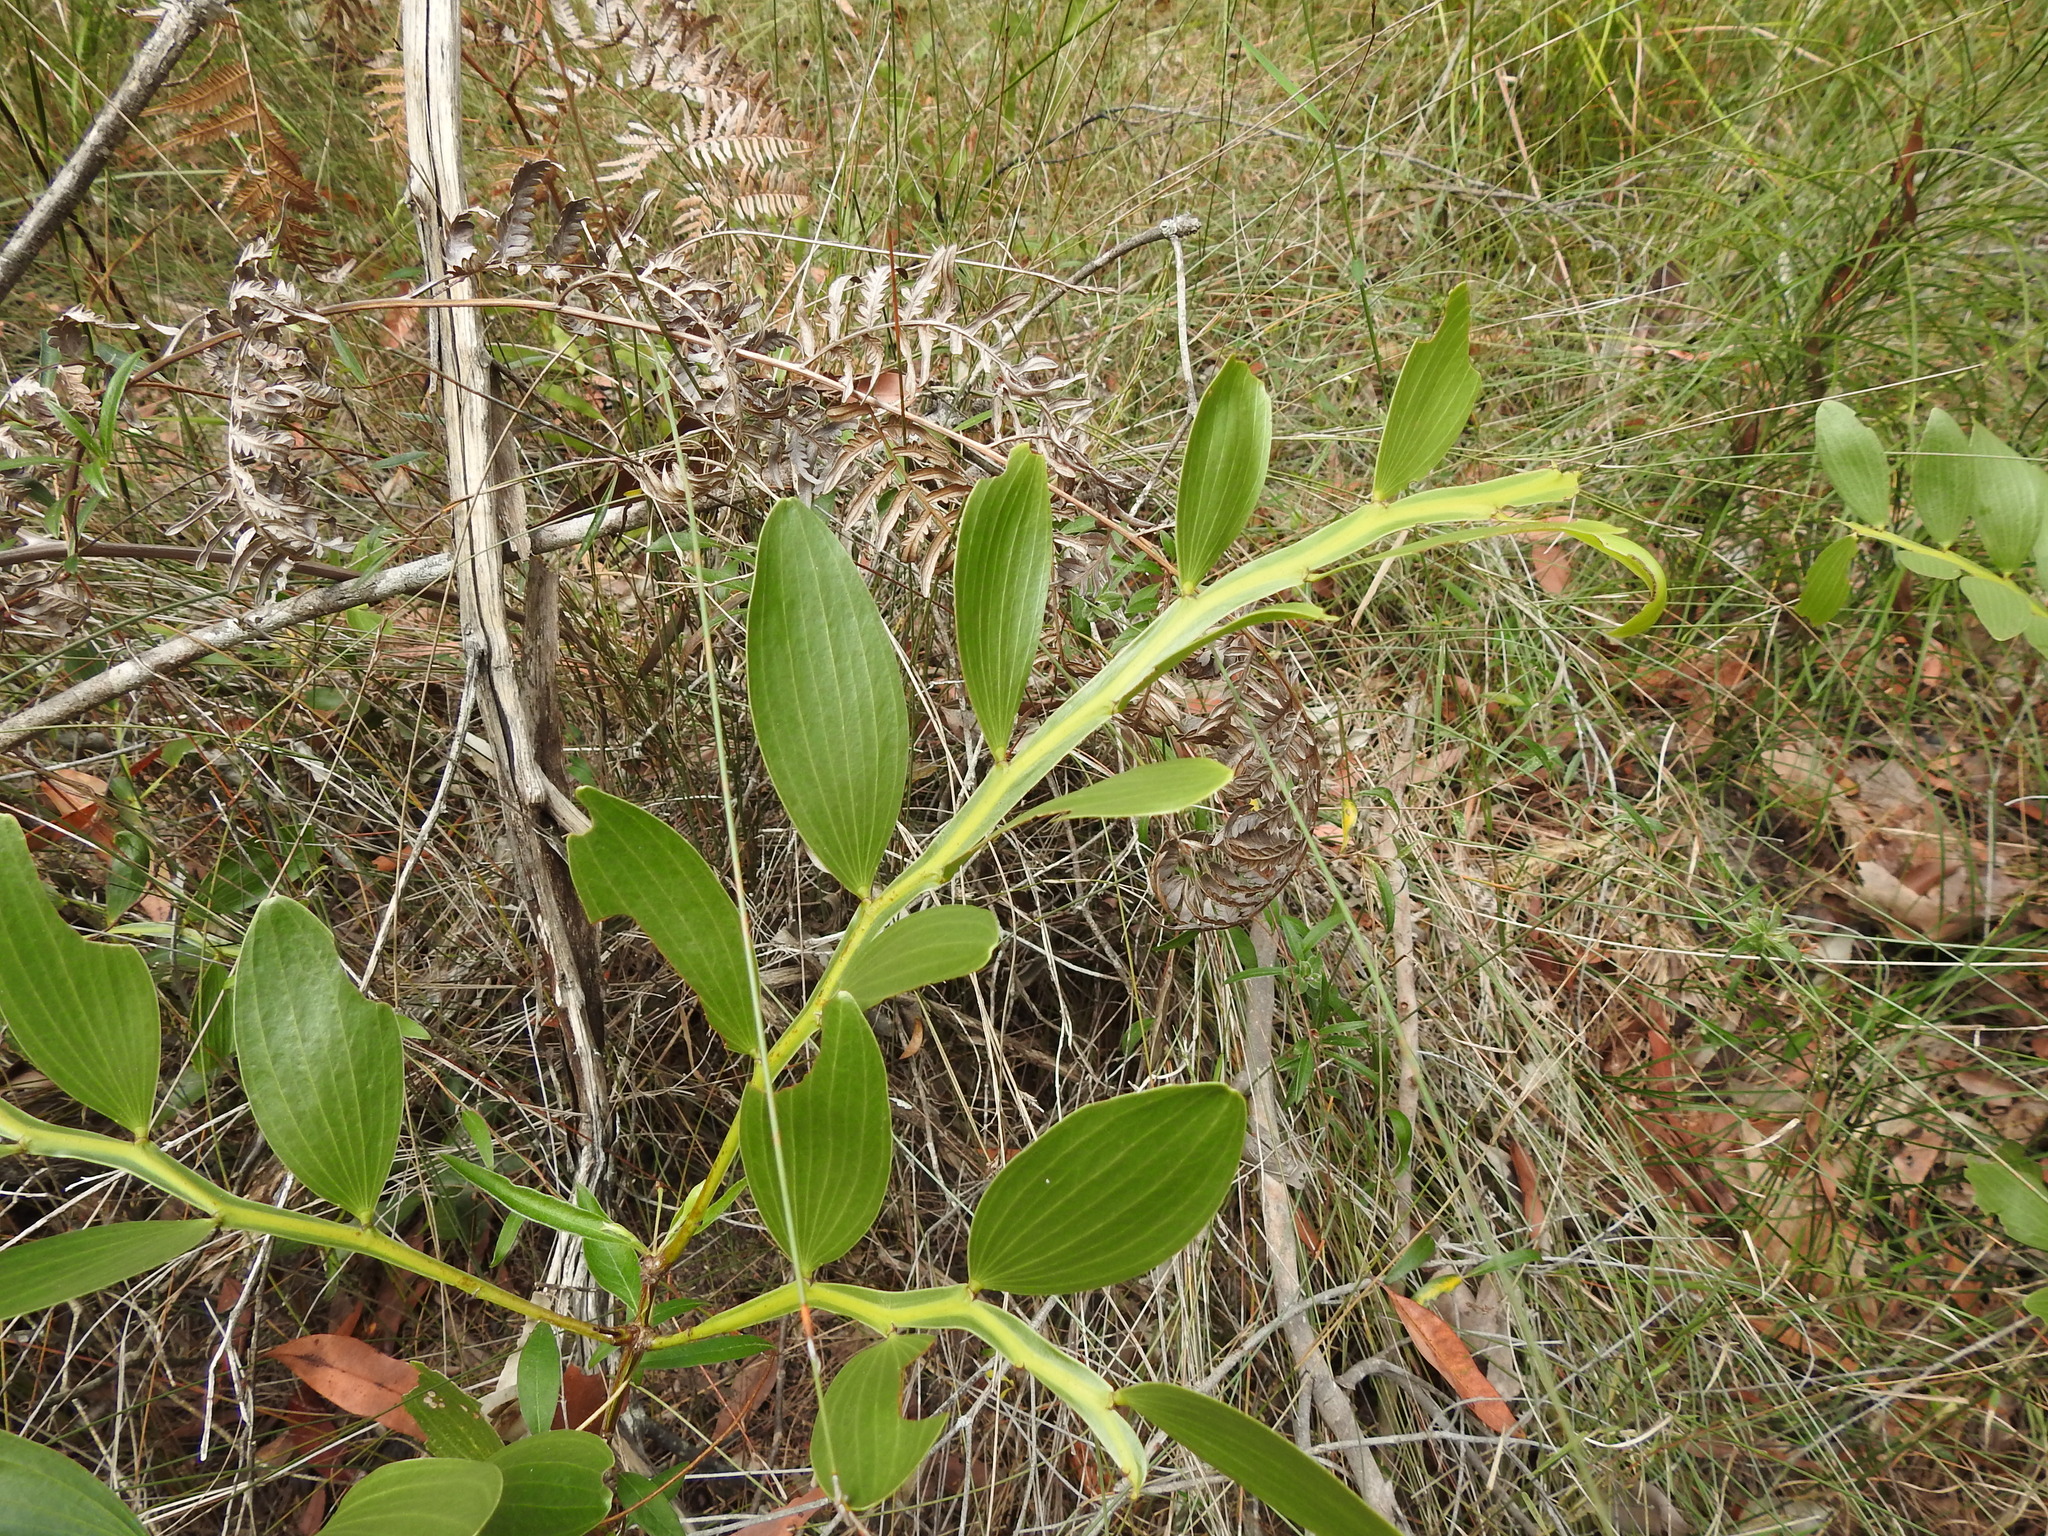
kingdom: Plantae
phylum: Tracheophyta
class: Magnoliopsida
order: Fabales
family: Fabaceae
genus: Acacia
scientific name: Acacia complanata
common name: Flat-stemmed wattle
